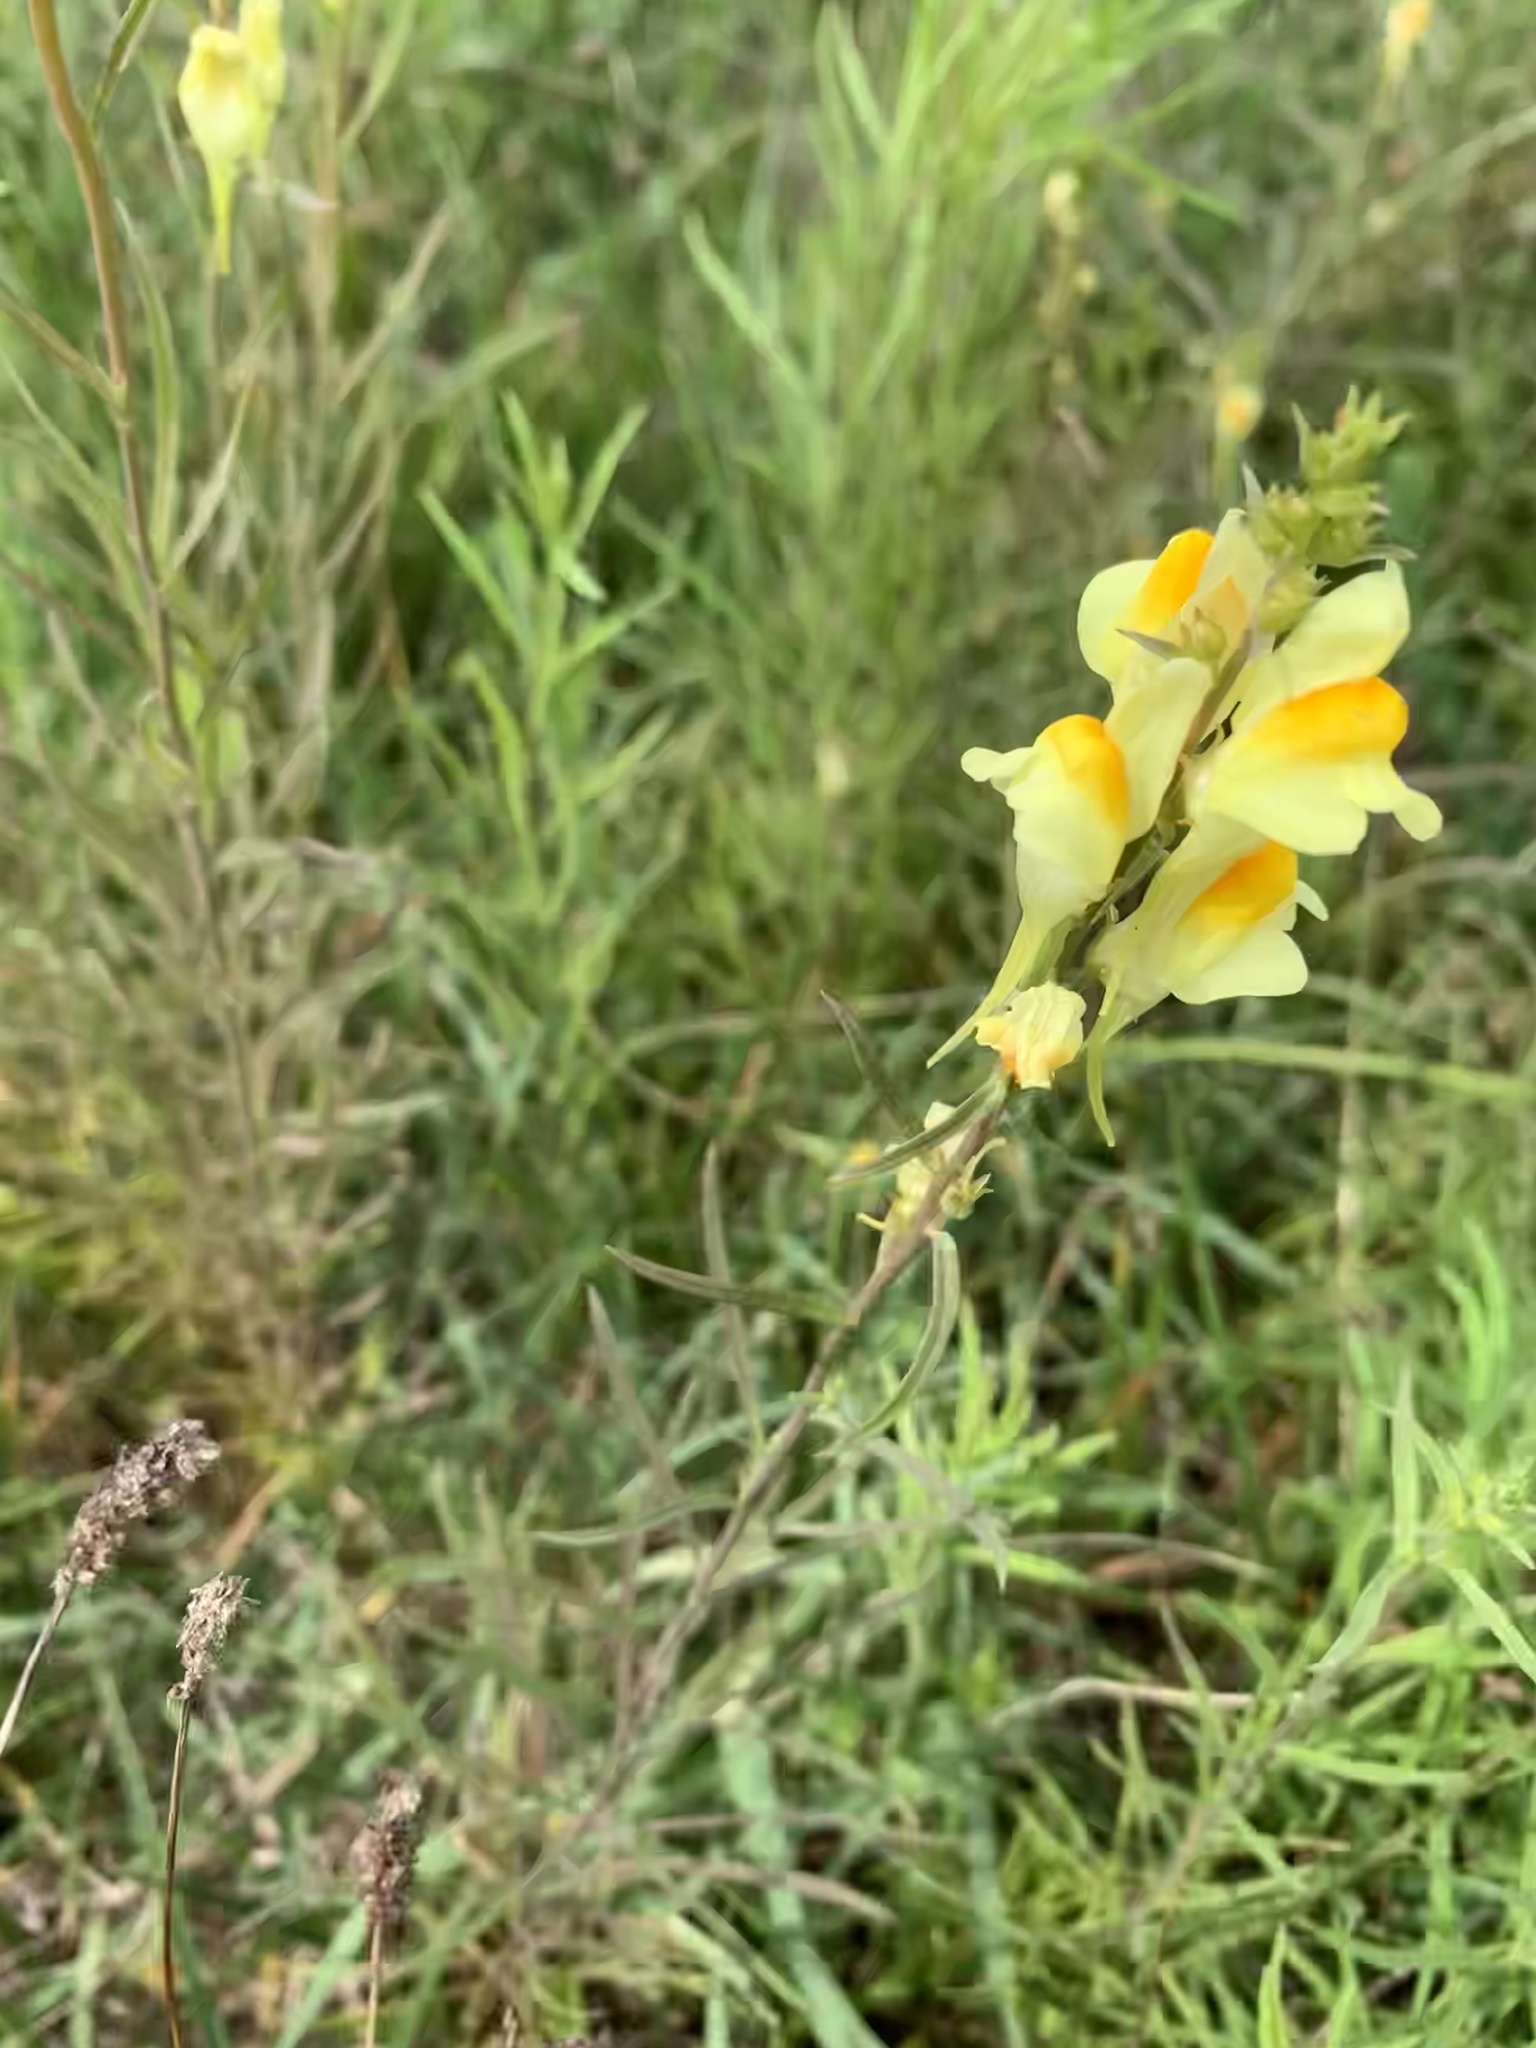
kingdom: Plantae
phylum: Tracheophyta
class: Magnoliopsida
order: Lamiales
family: Plantaginaceae
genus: Linaria
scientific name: Linaria vulgaris
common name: Butter and eggs
